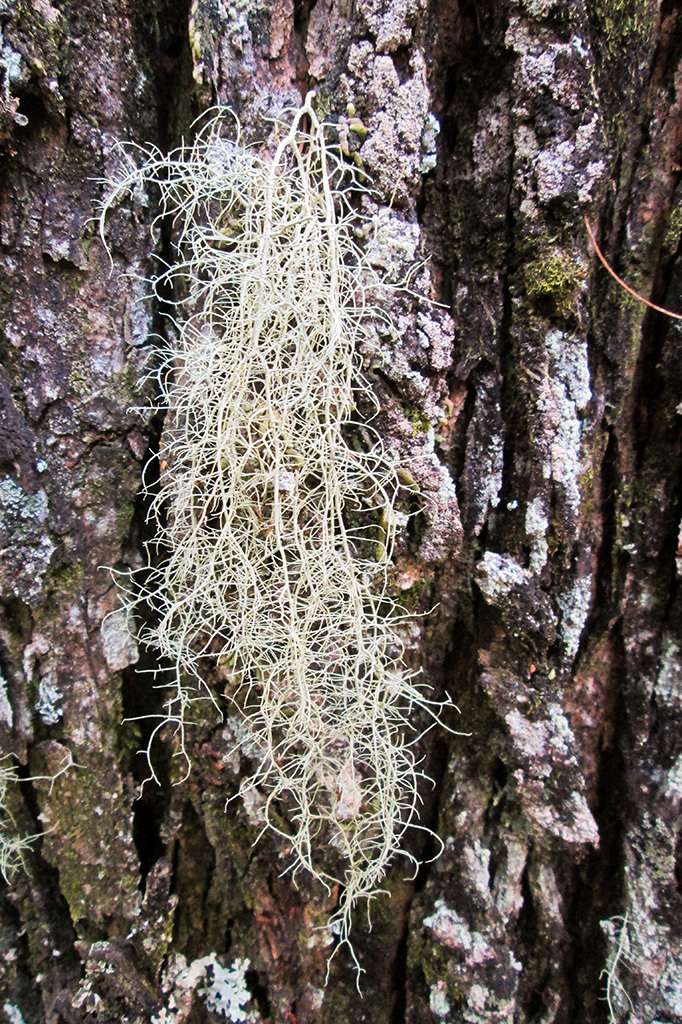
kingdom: Fungi
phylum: Ascomycota
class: Lecanoromycetes
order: Lecanorales
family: Parmeliaceae
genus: Usnea
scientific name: Usnea
